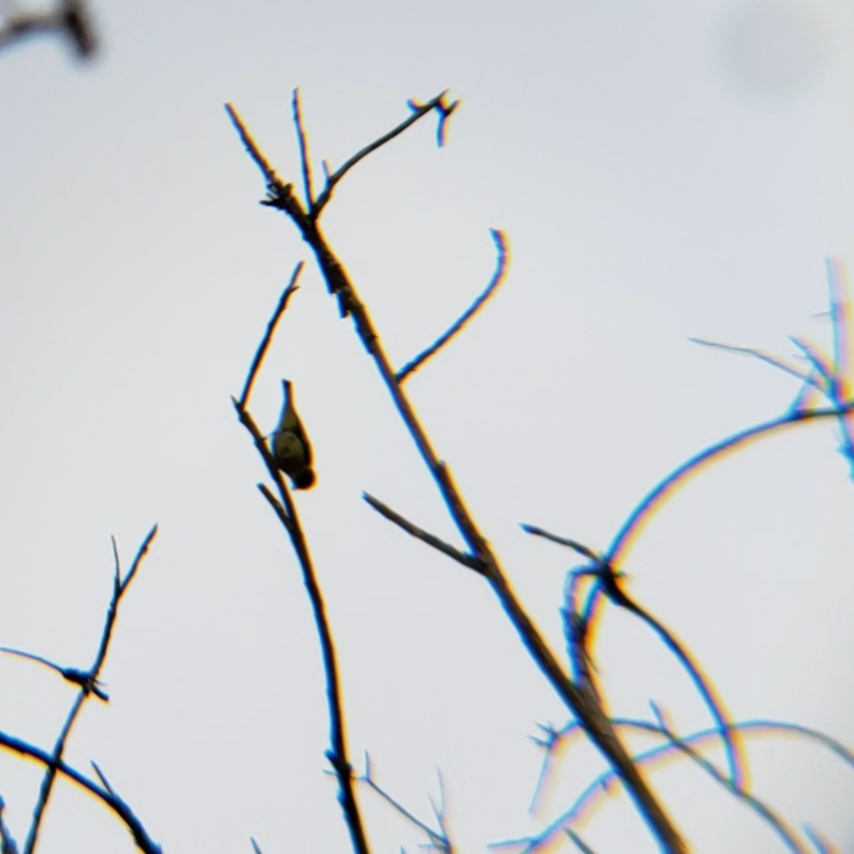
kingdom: Animalia
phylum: Chordata
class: Aves
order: Passeriformes
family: Fringillidae
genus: Spinus
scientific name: Spinus psaltria
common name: Lesser goldfinch
